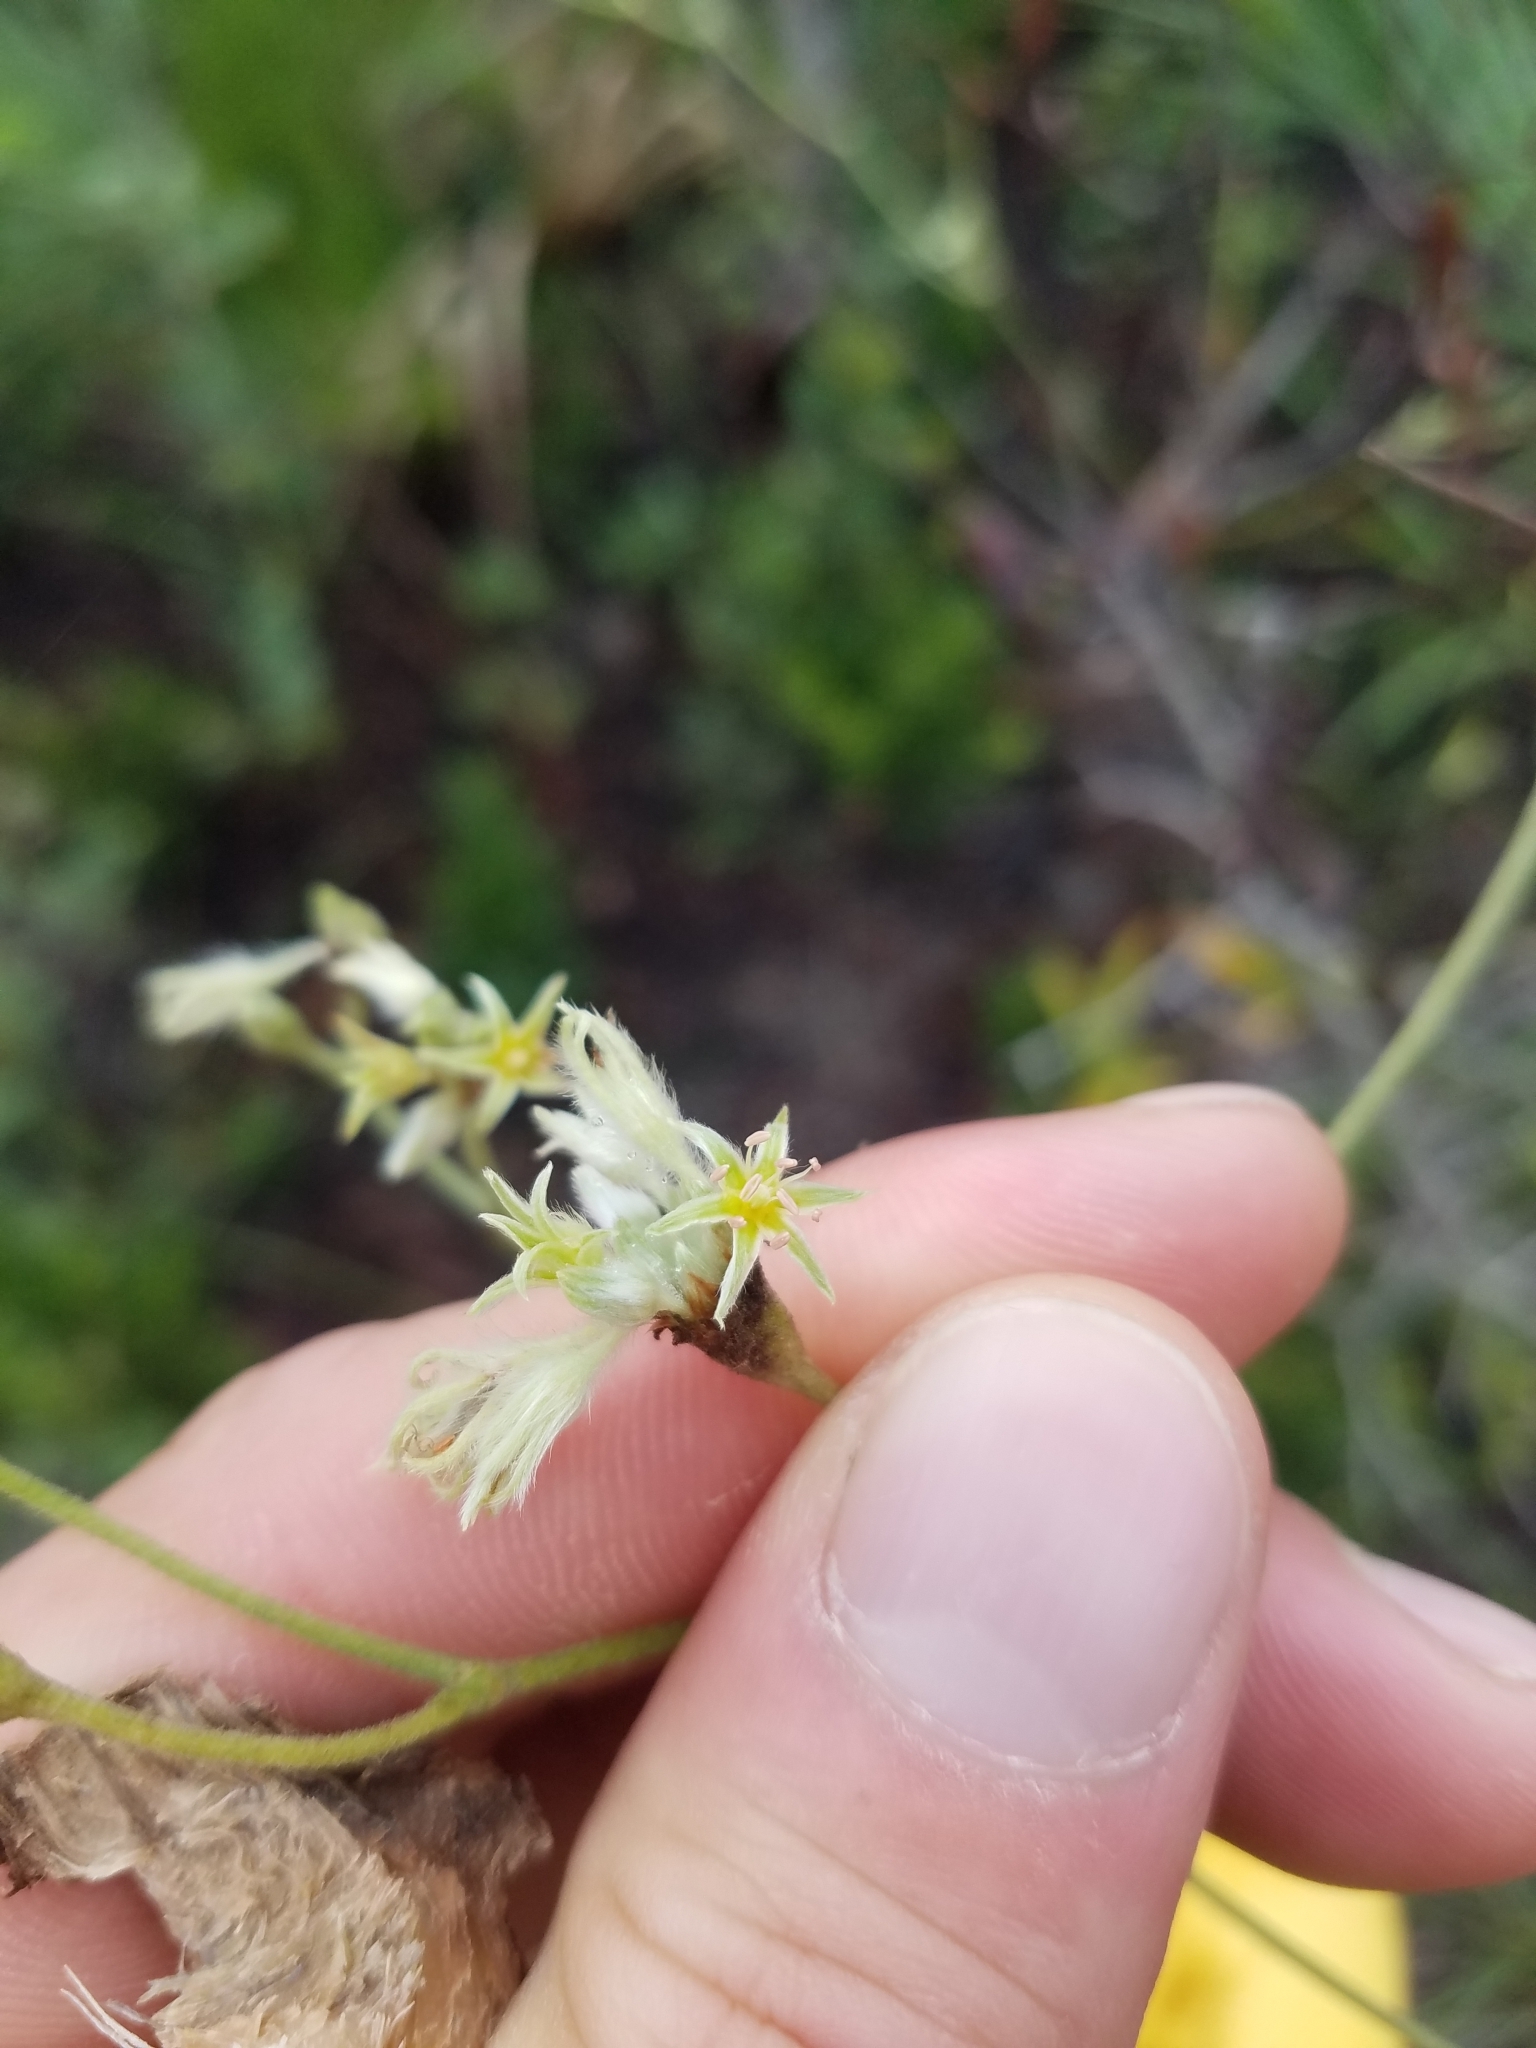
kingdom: Plantae
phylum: Tracheophyta
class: Magnoliopsida
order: Caryophyllales
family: Polygonaceae
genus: Eriogonum
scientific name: Eriogonum longifolium
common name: Longleaf wild buckwheat
